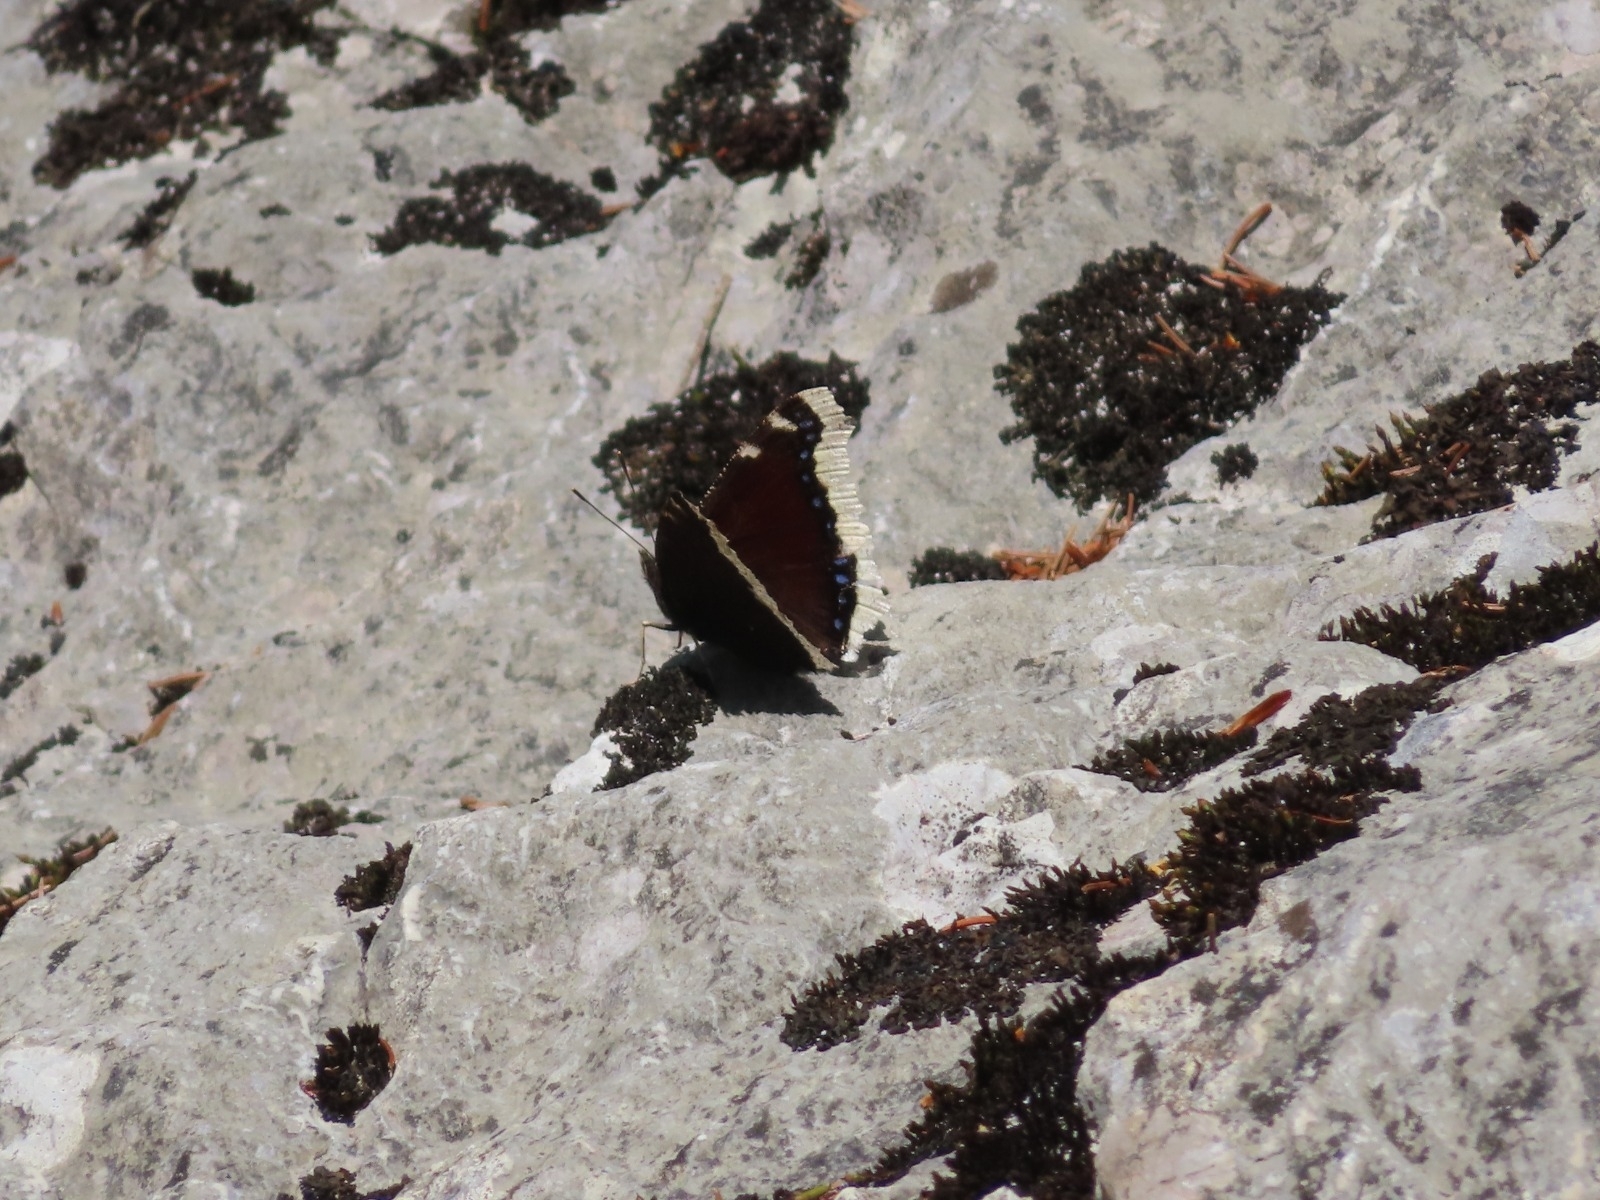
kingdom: Animalia
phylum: Arthropoda
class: Insecta
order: Lepidoptera
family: Nymphalidae
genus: Nymphalis
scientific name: Nymphalis antiopa
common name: Camberwell beauty
